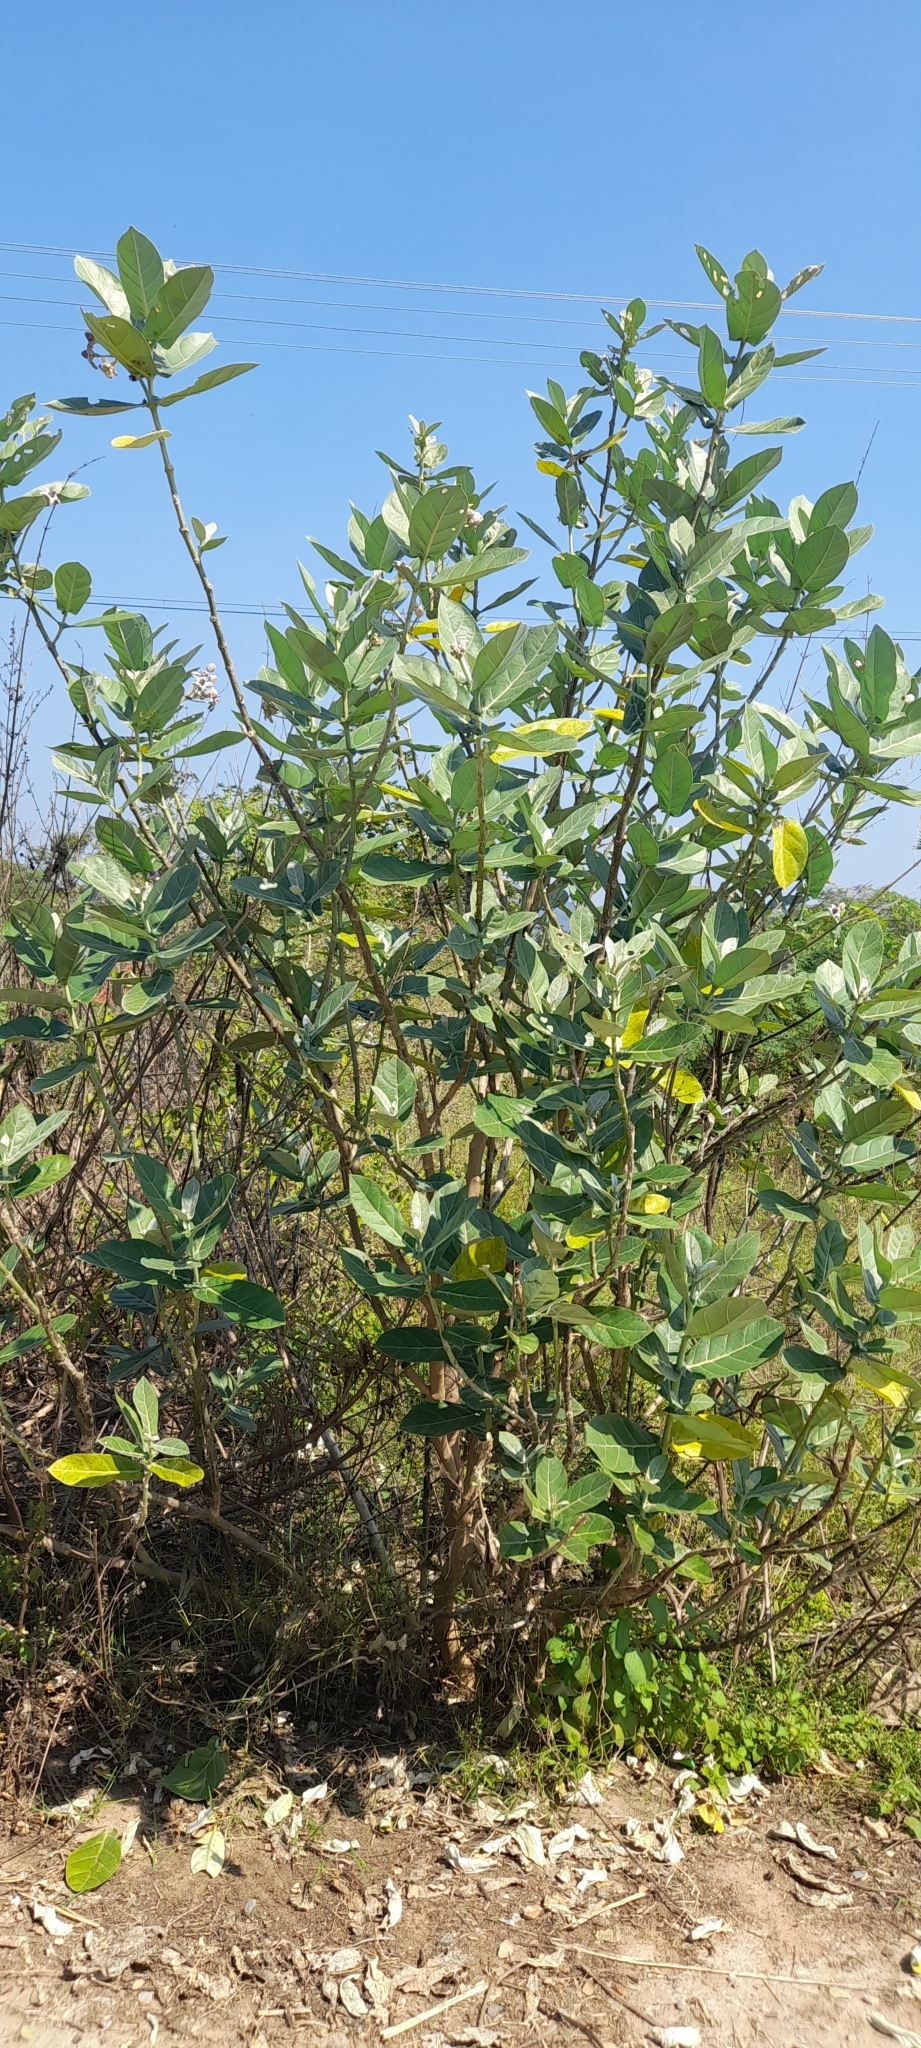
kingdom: Plantae
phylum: Tracheophyta
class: Magnoliopsida
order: Gentianales
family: Apocynaceae
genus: Calotropis
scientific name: Calotropis gigantea
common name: Crown flower
